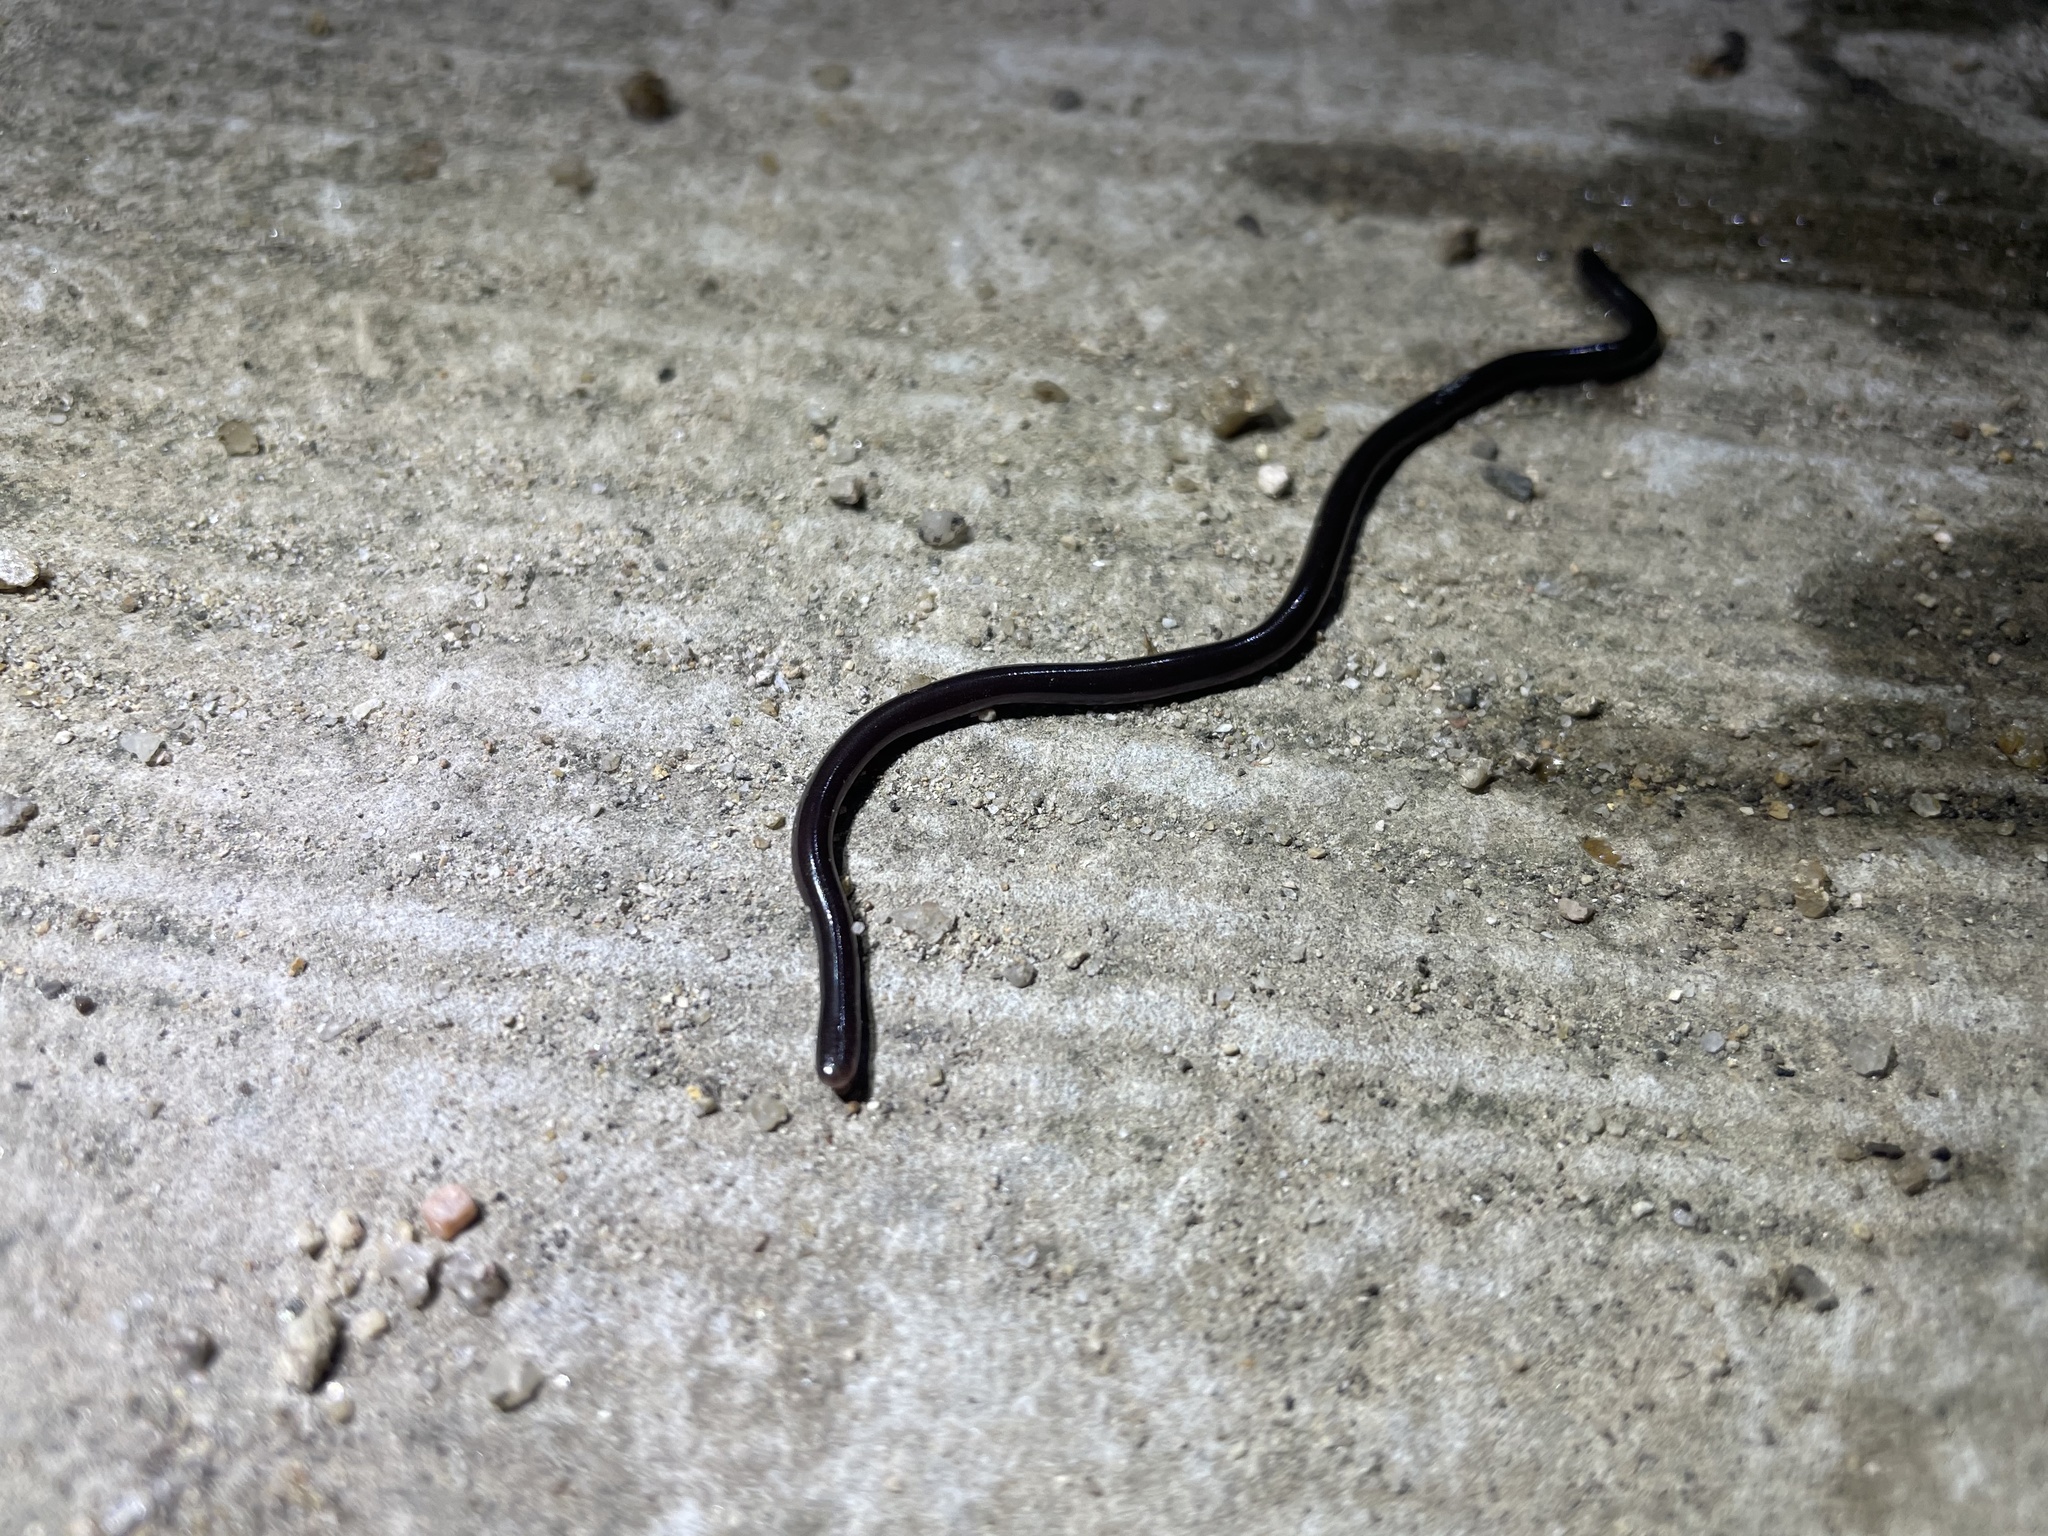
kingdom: Animalia
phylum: Chordata
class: Squamata
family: Typhlopidae
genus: Indotyphlops
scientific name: Indotyphlops braminus
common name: Brahminy blindsnake
